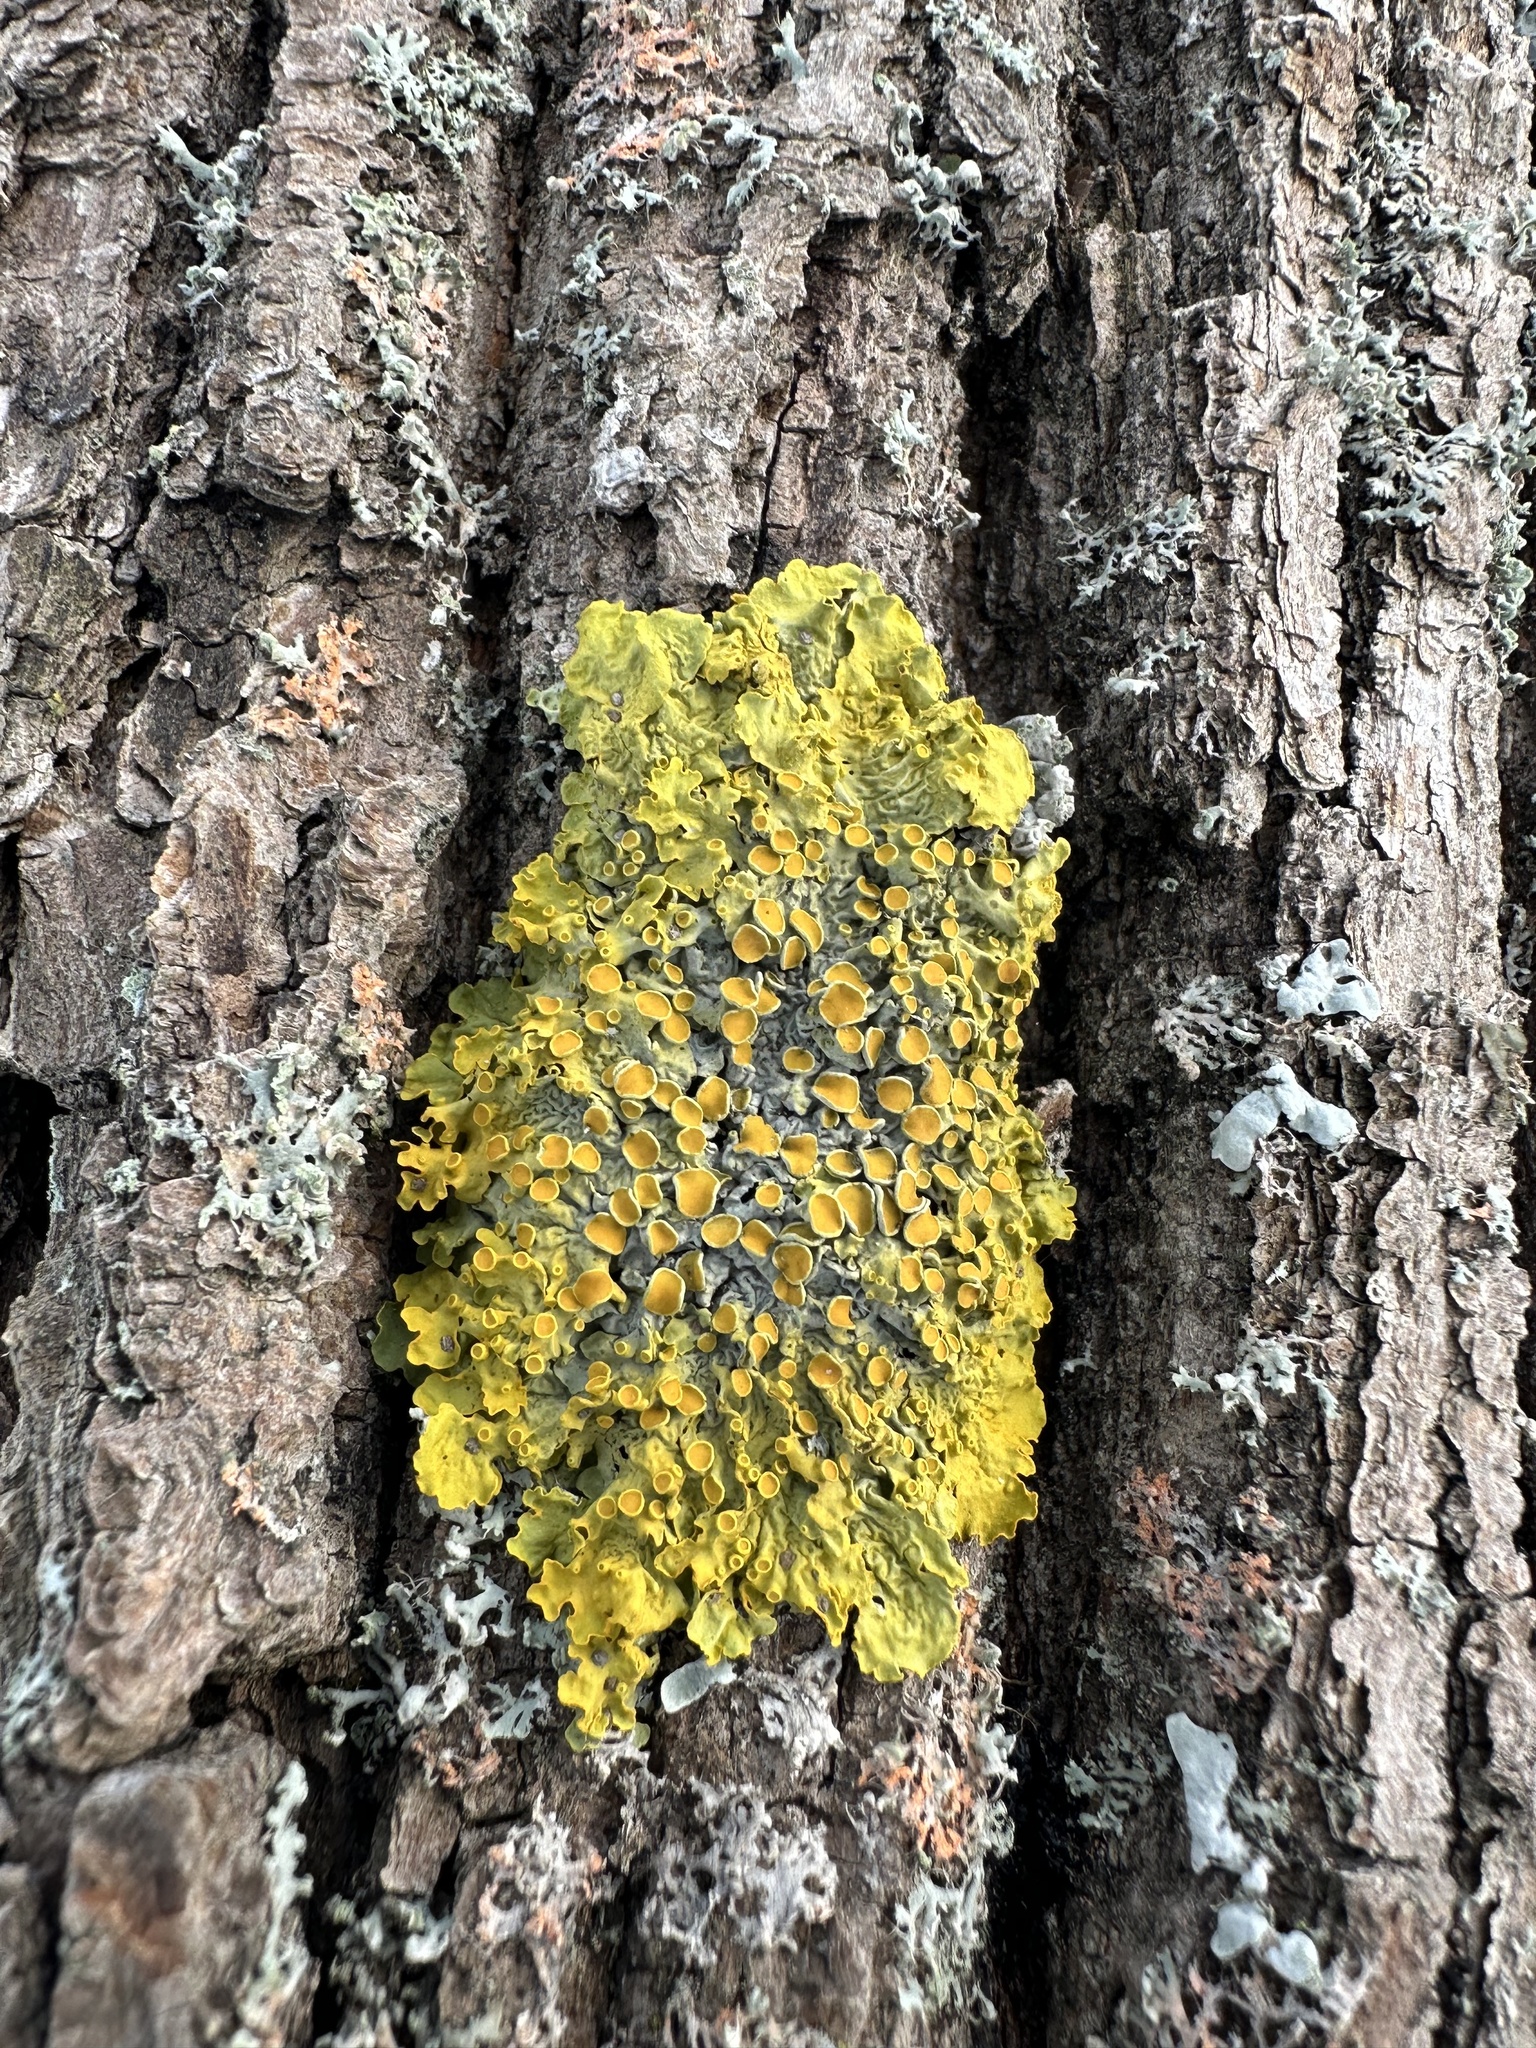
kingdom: Fungi
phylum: Ascomycota
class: Lecanoromycetes
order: Teloschistales
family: Teloschistaceae
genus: Xanthoria
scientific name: Xanthoria parietina
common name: Common orange lichen
